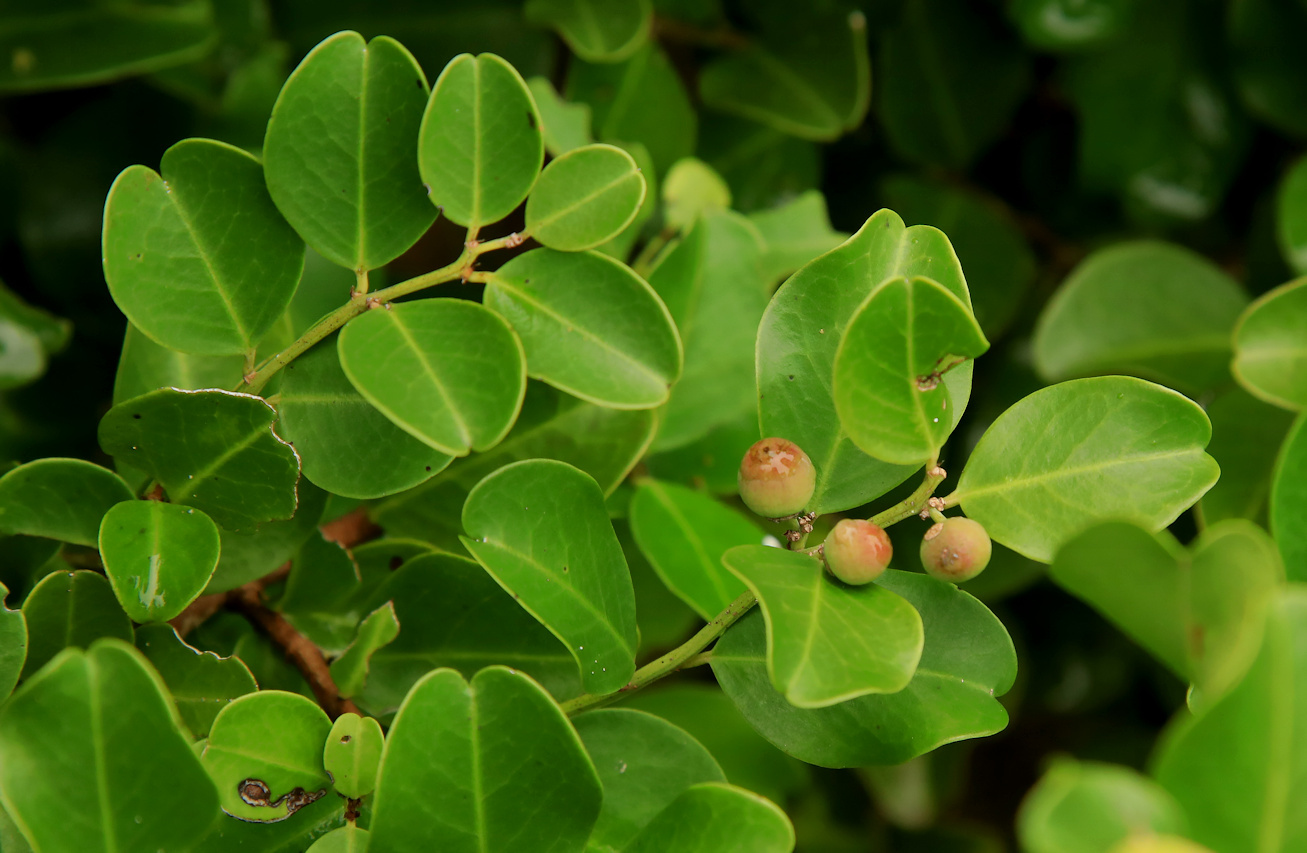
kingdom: Plantae
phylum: Tracheophyta
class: Magnoliopsida
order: Rosales
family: Rhamnaceae
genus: Scutia
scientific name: Scutia myrtina
